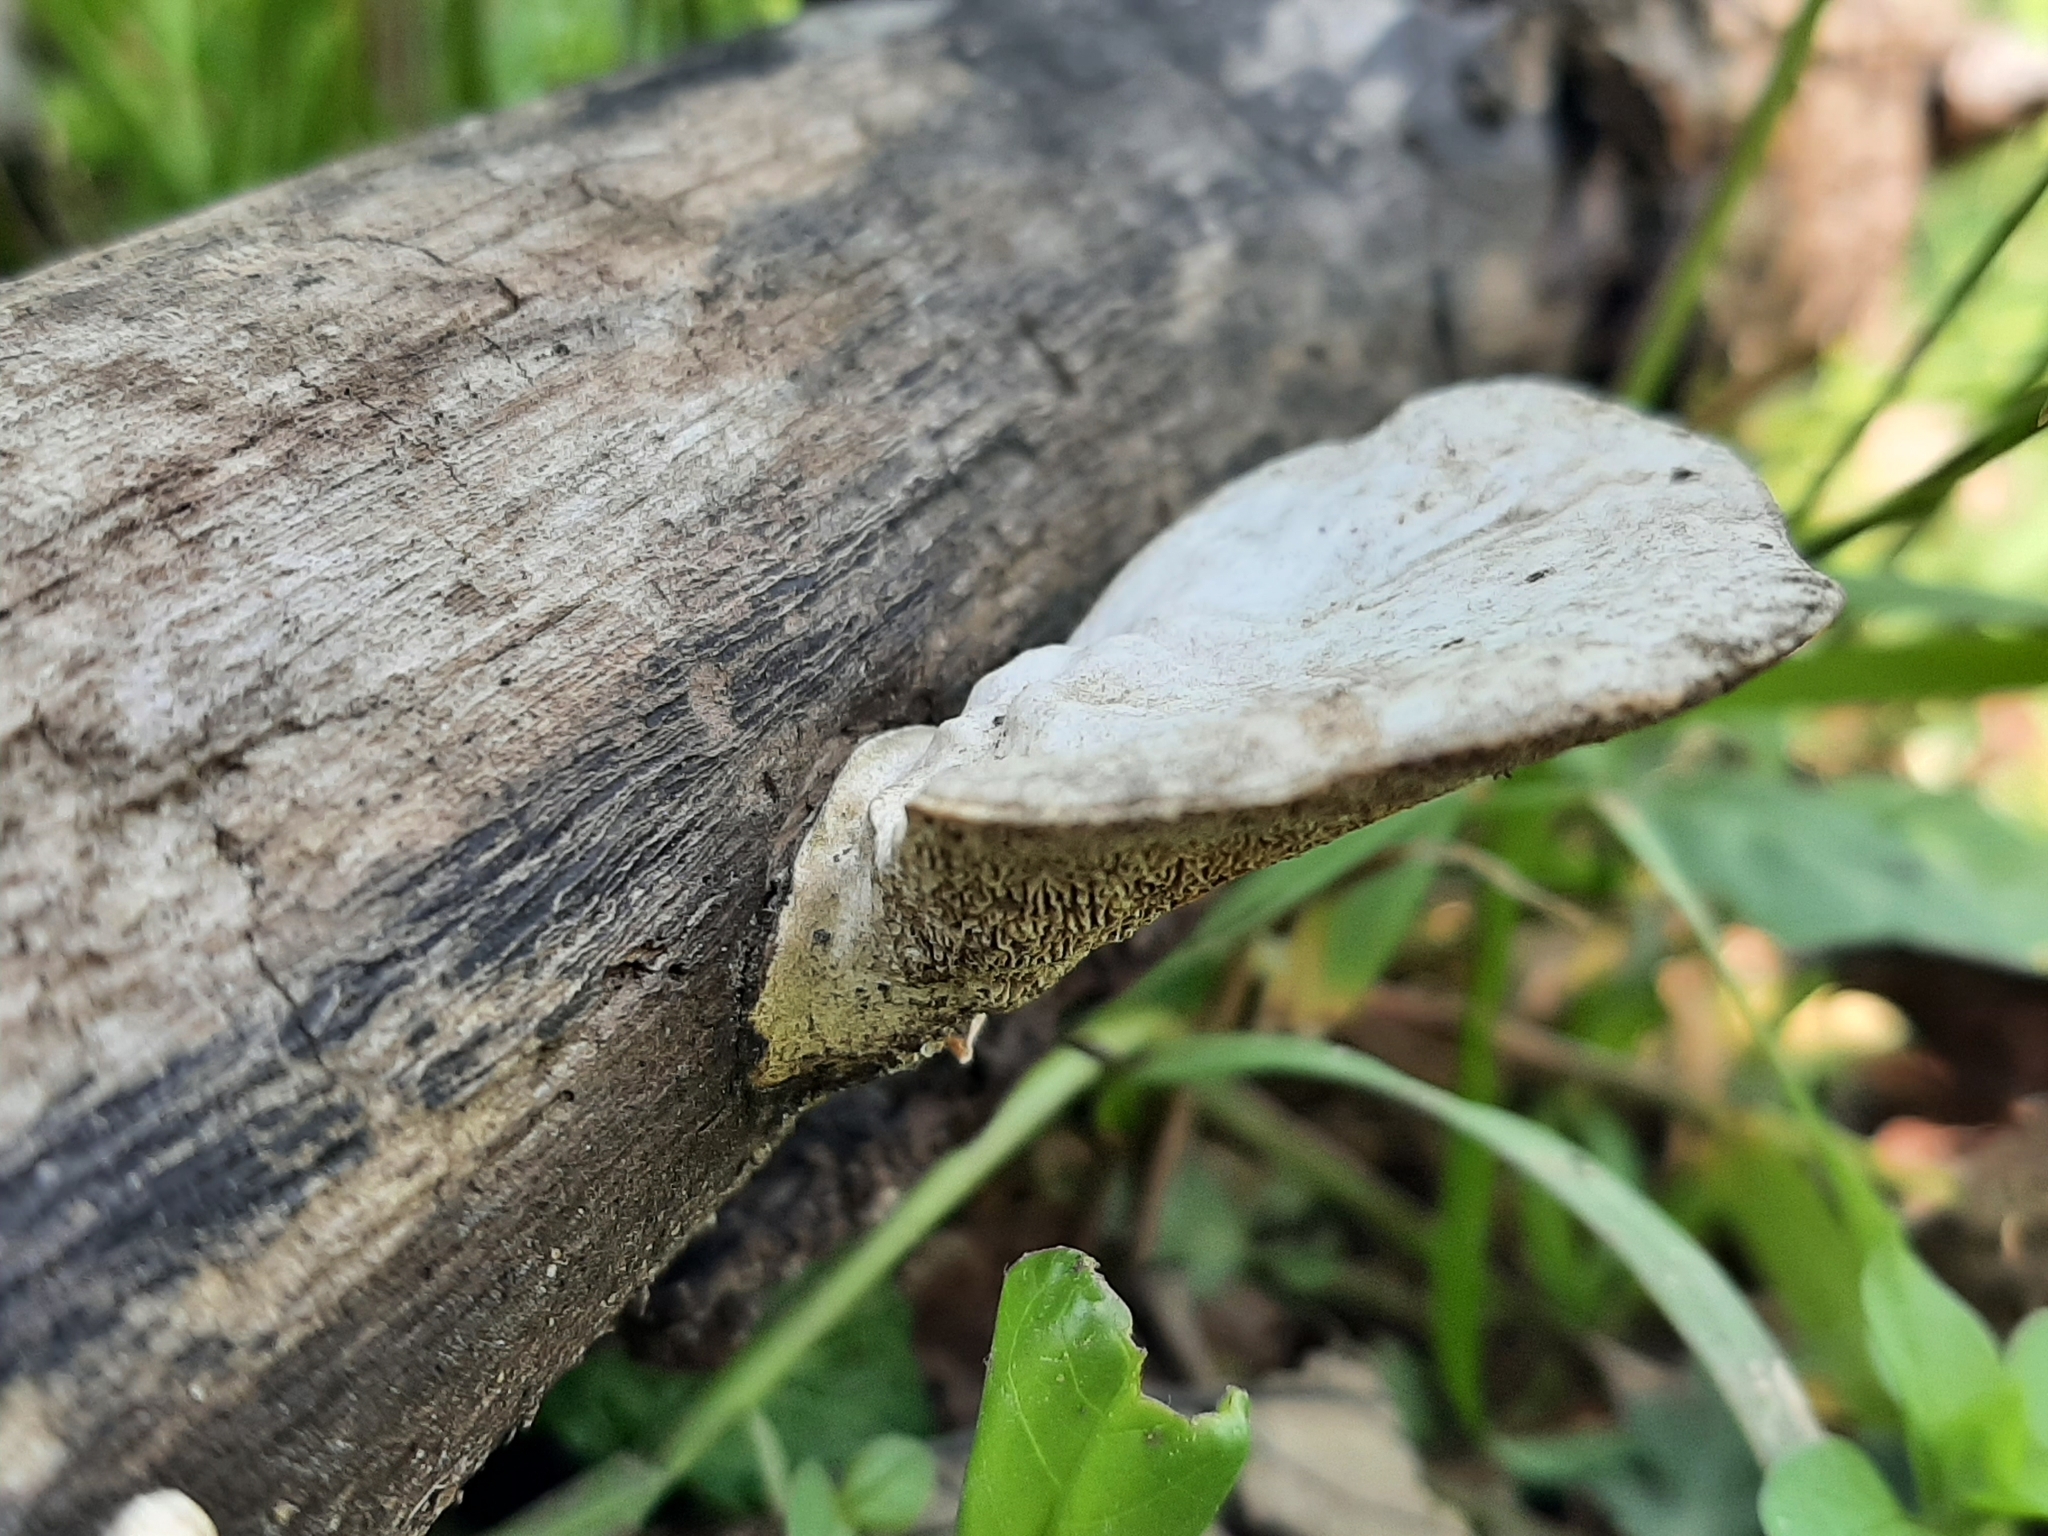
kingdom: Fungi
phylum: Basidiomycota
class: Agaricomycetes
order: Polyporales
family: Polyporaceae
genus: Trametes
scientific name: Trametes
